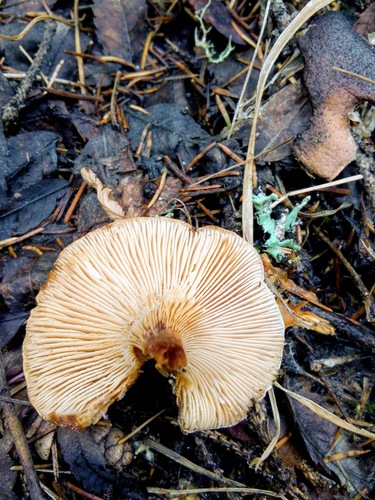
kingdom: Fungi
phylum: Basidiomycota
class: Agaricomycetes
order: Russulales
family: Russulaceae
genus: Lactarius
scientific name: Lactarius
